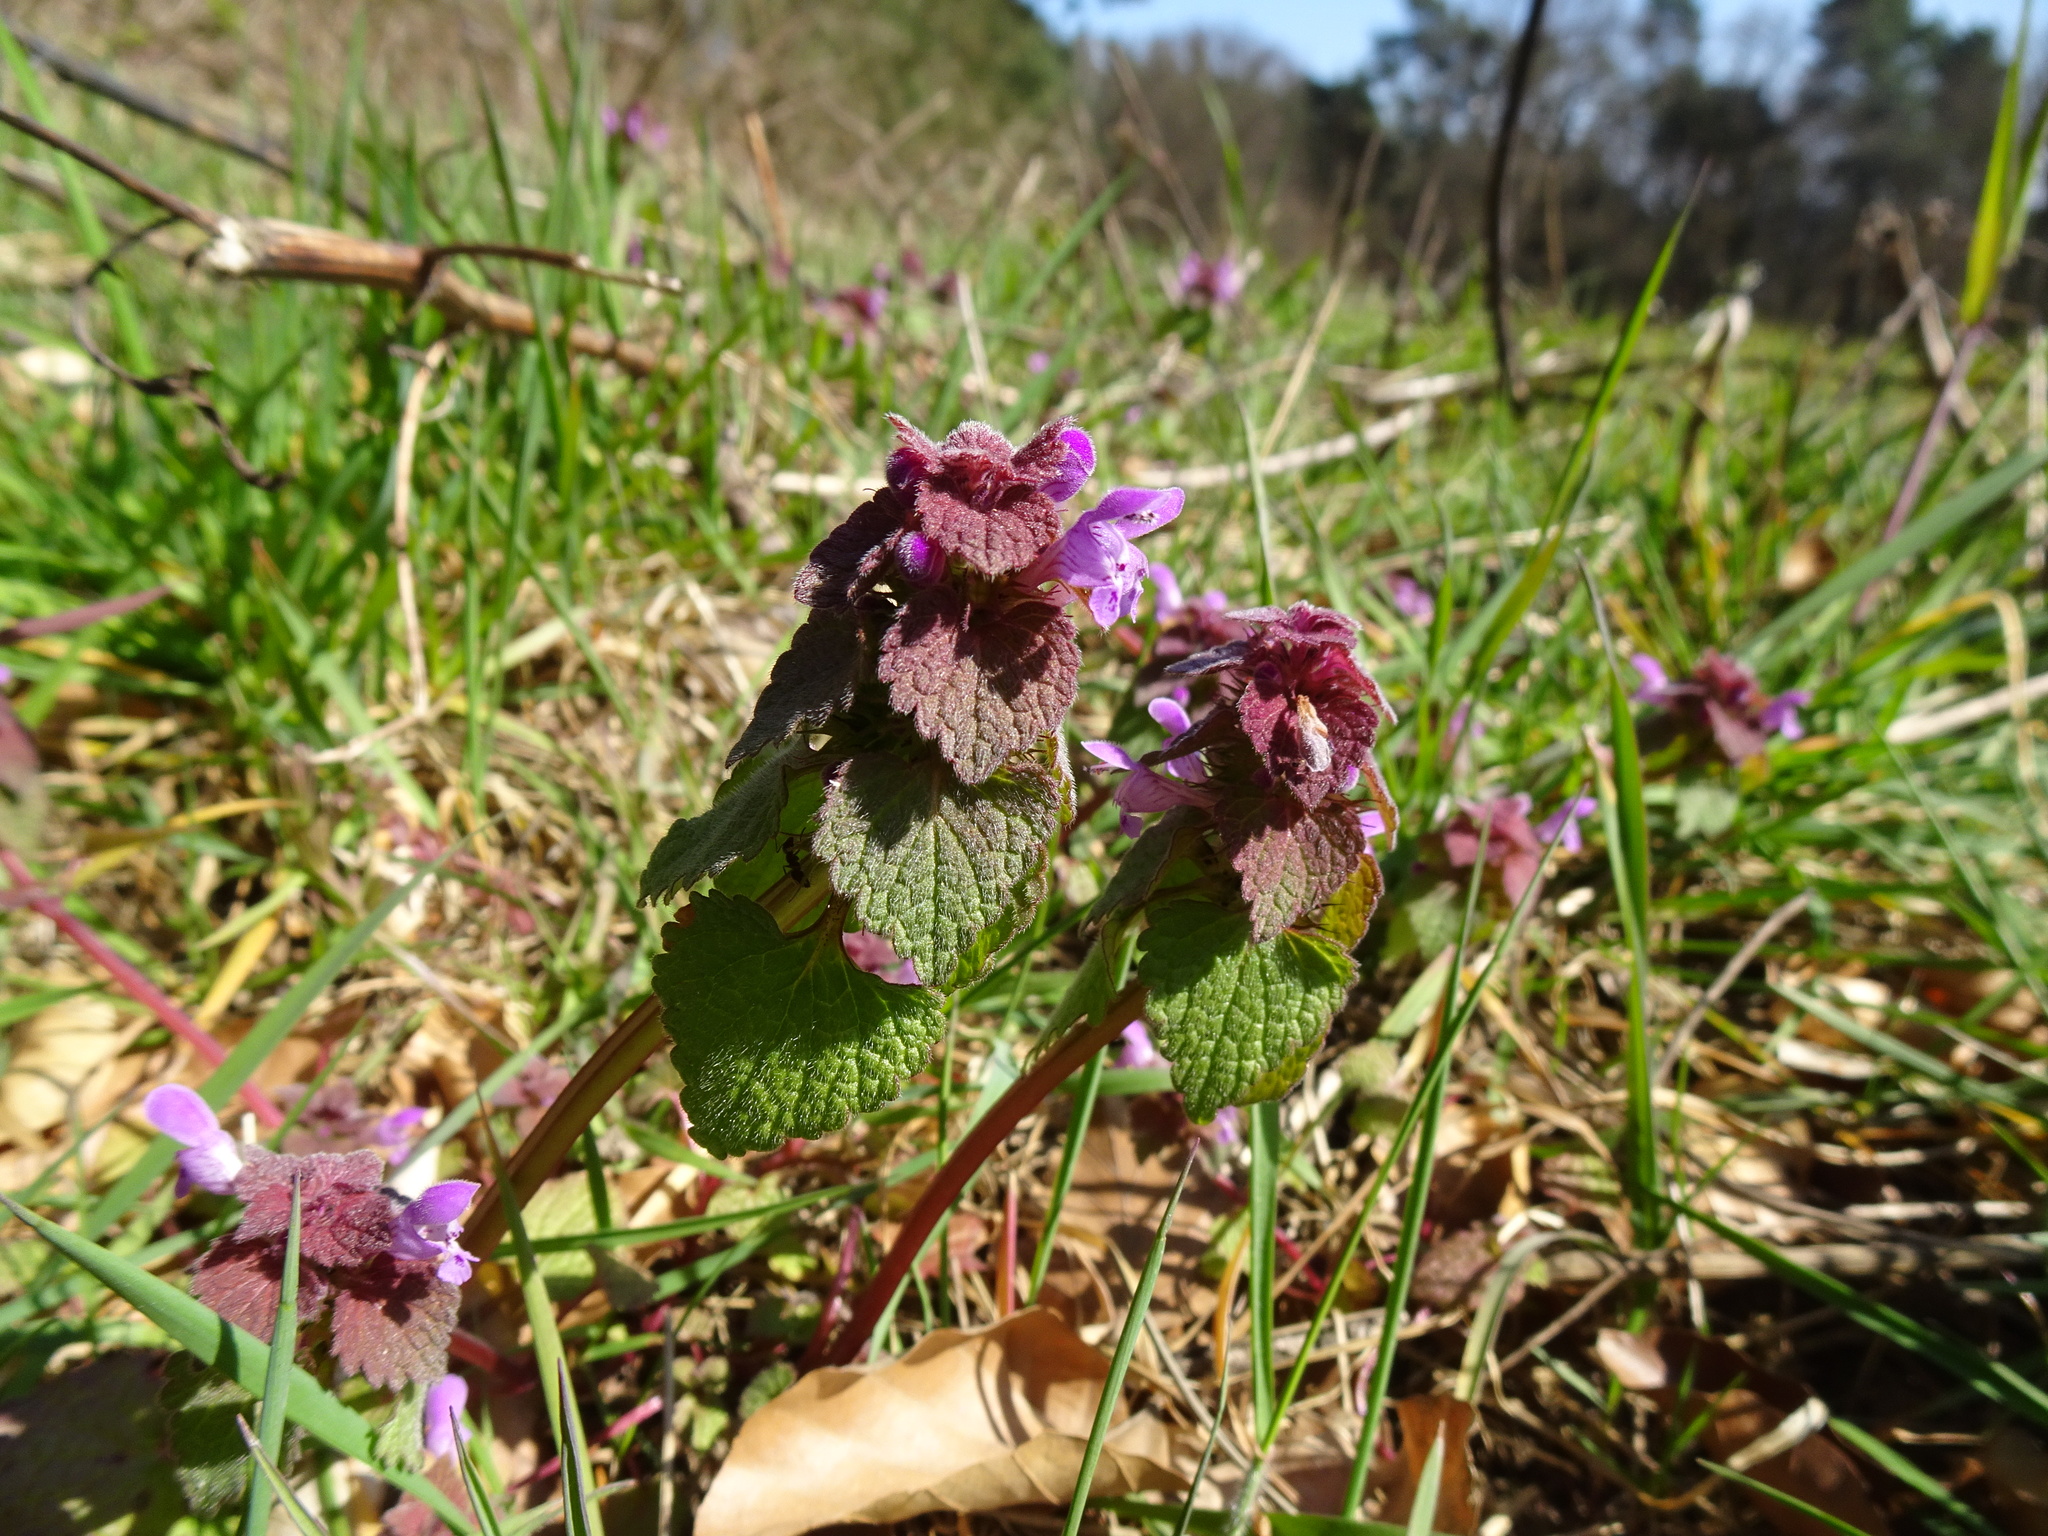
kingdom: Plantae
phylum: Tracheophyta
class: Magnoliopsida
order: Lamiales
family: Lamiaceae
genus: Lamium
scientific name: Lamium purpureum
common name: Red dead-nettle
